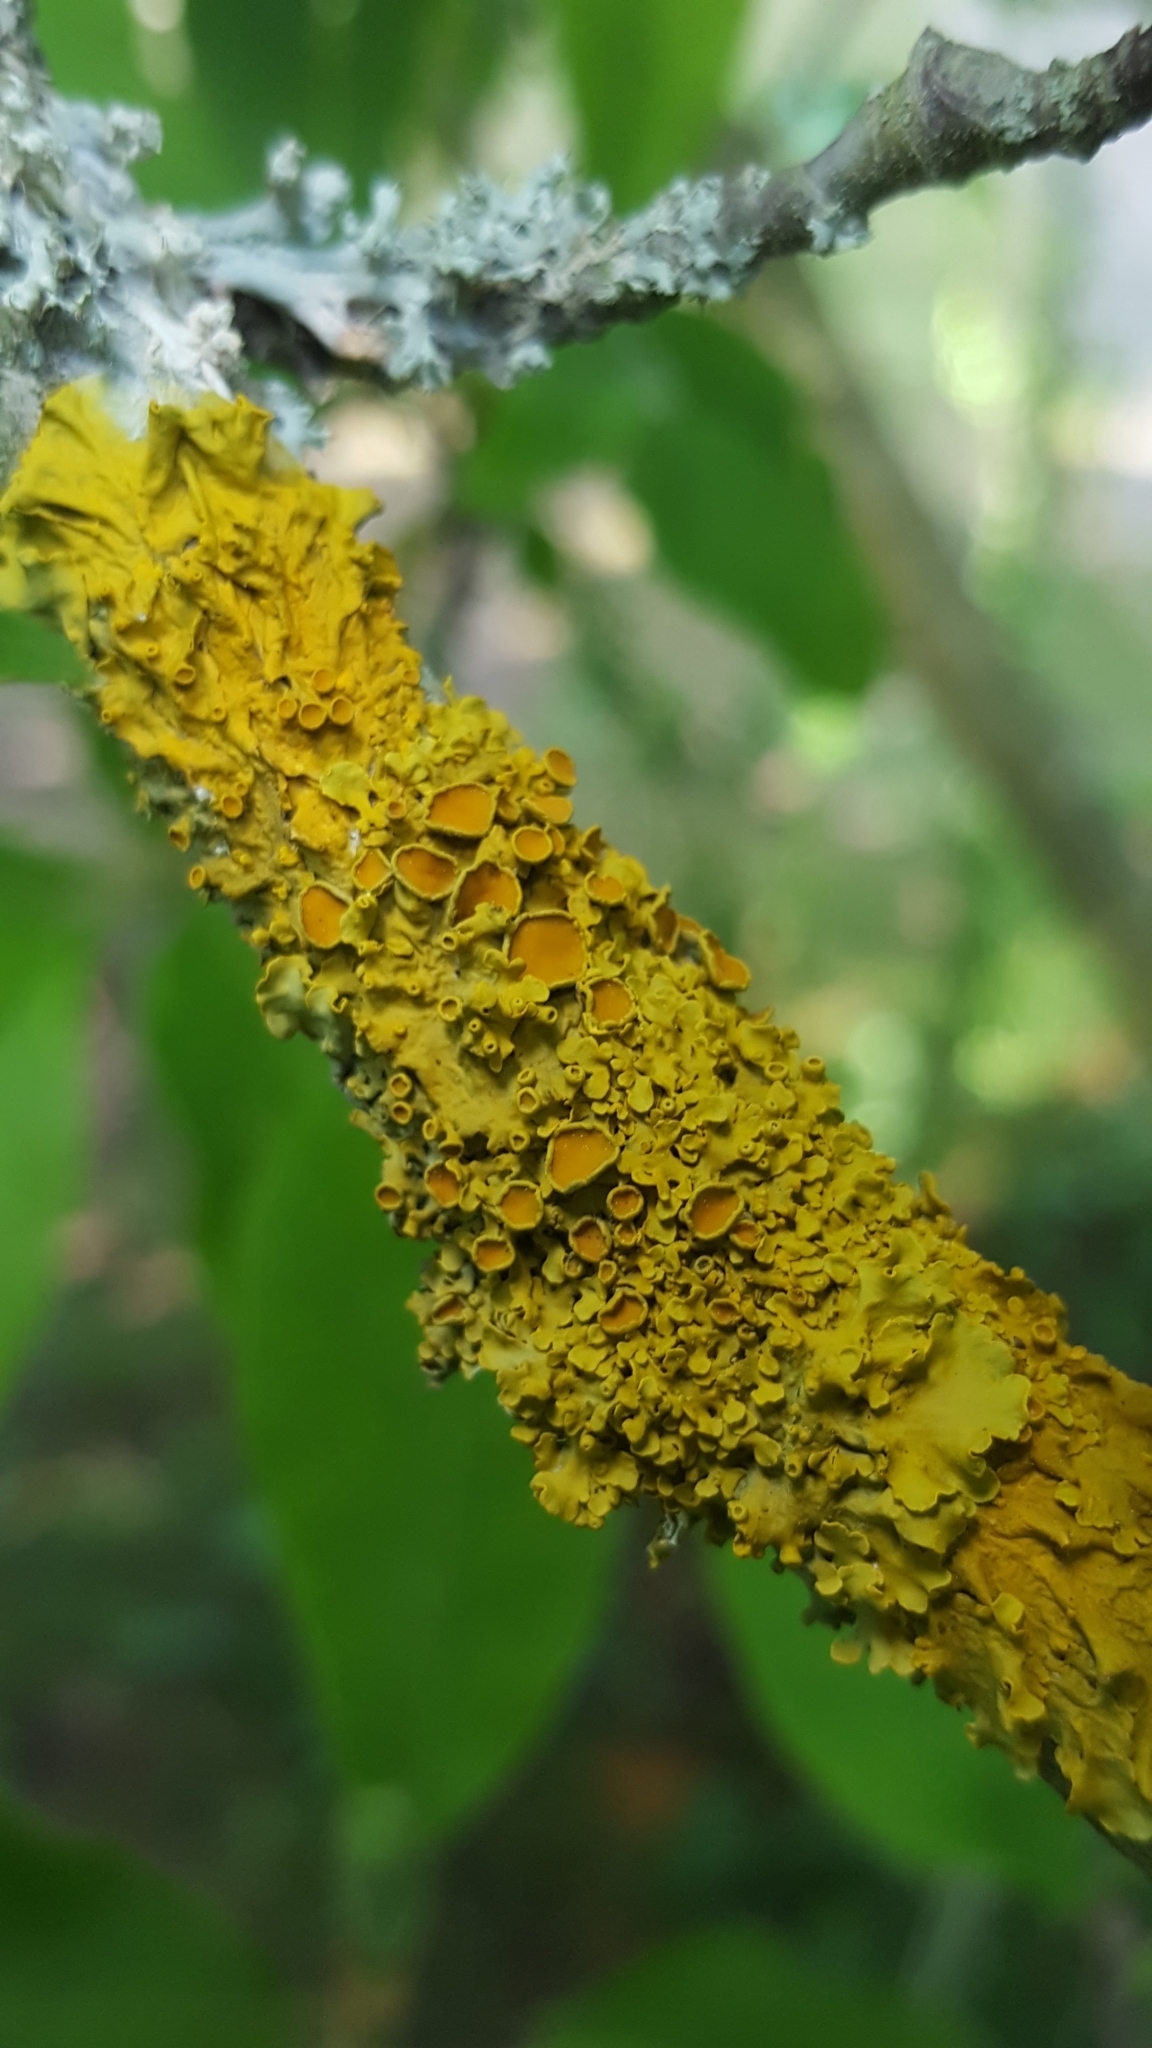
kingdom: Fungi
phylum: Ascomycota
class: Lecanoromycetes
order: Teloschistales
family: Teloschistaceae
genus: Xanthoria
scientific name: Xanthoria parietina
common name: Common orange lichen
